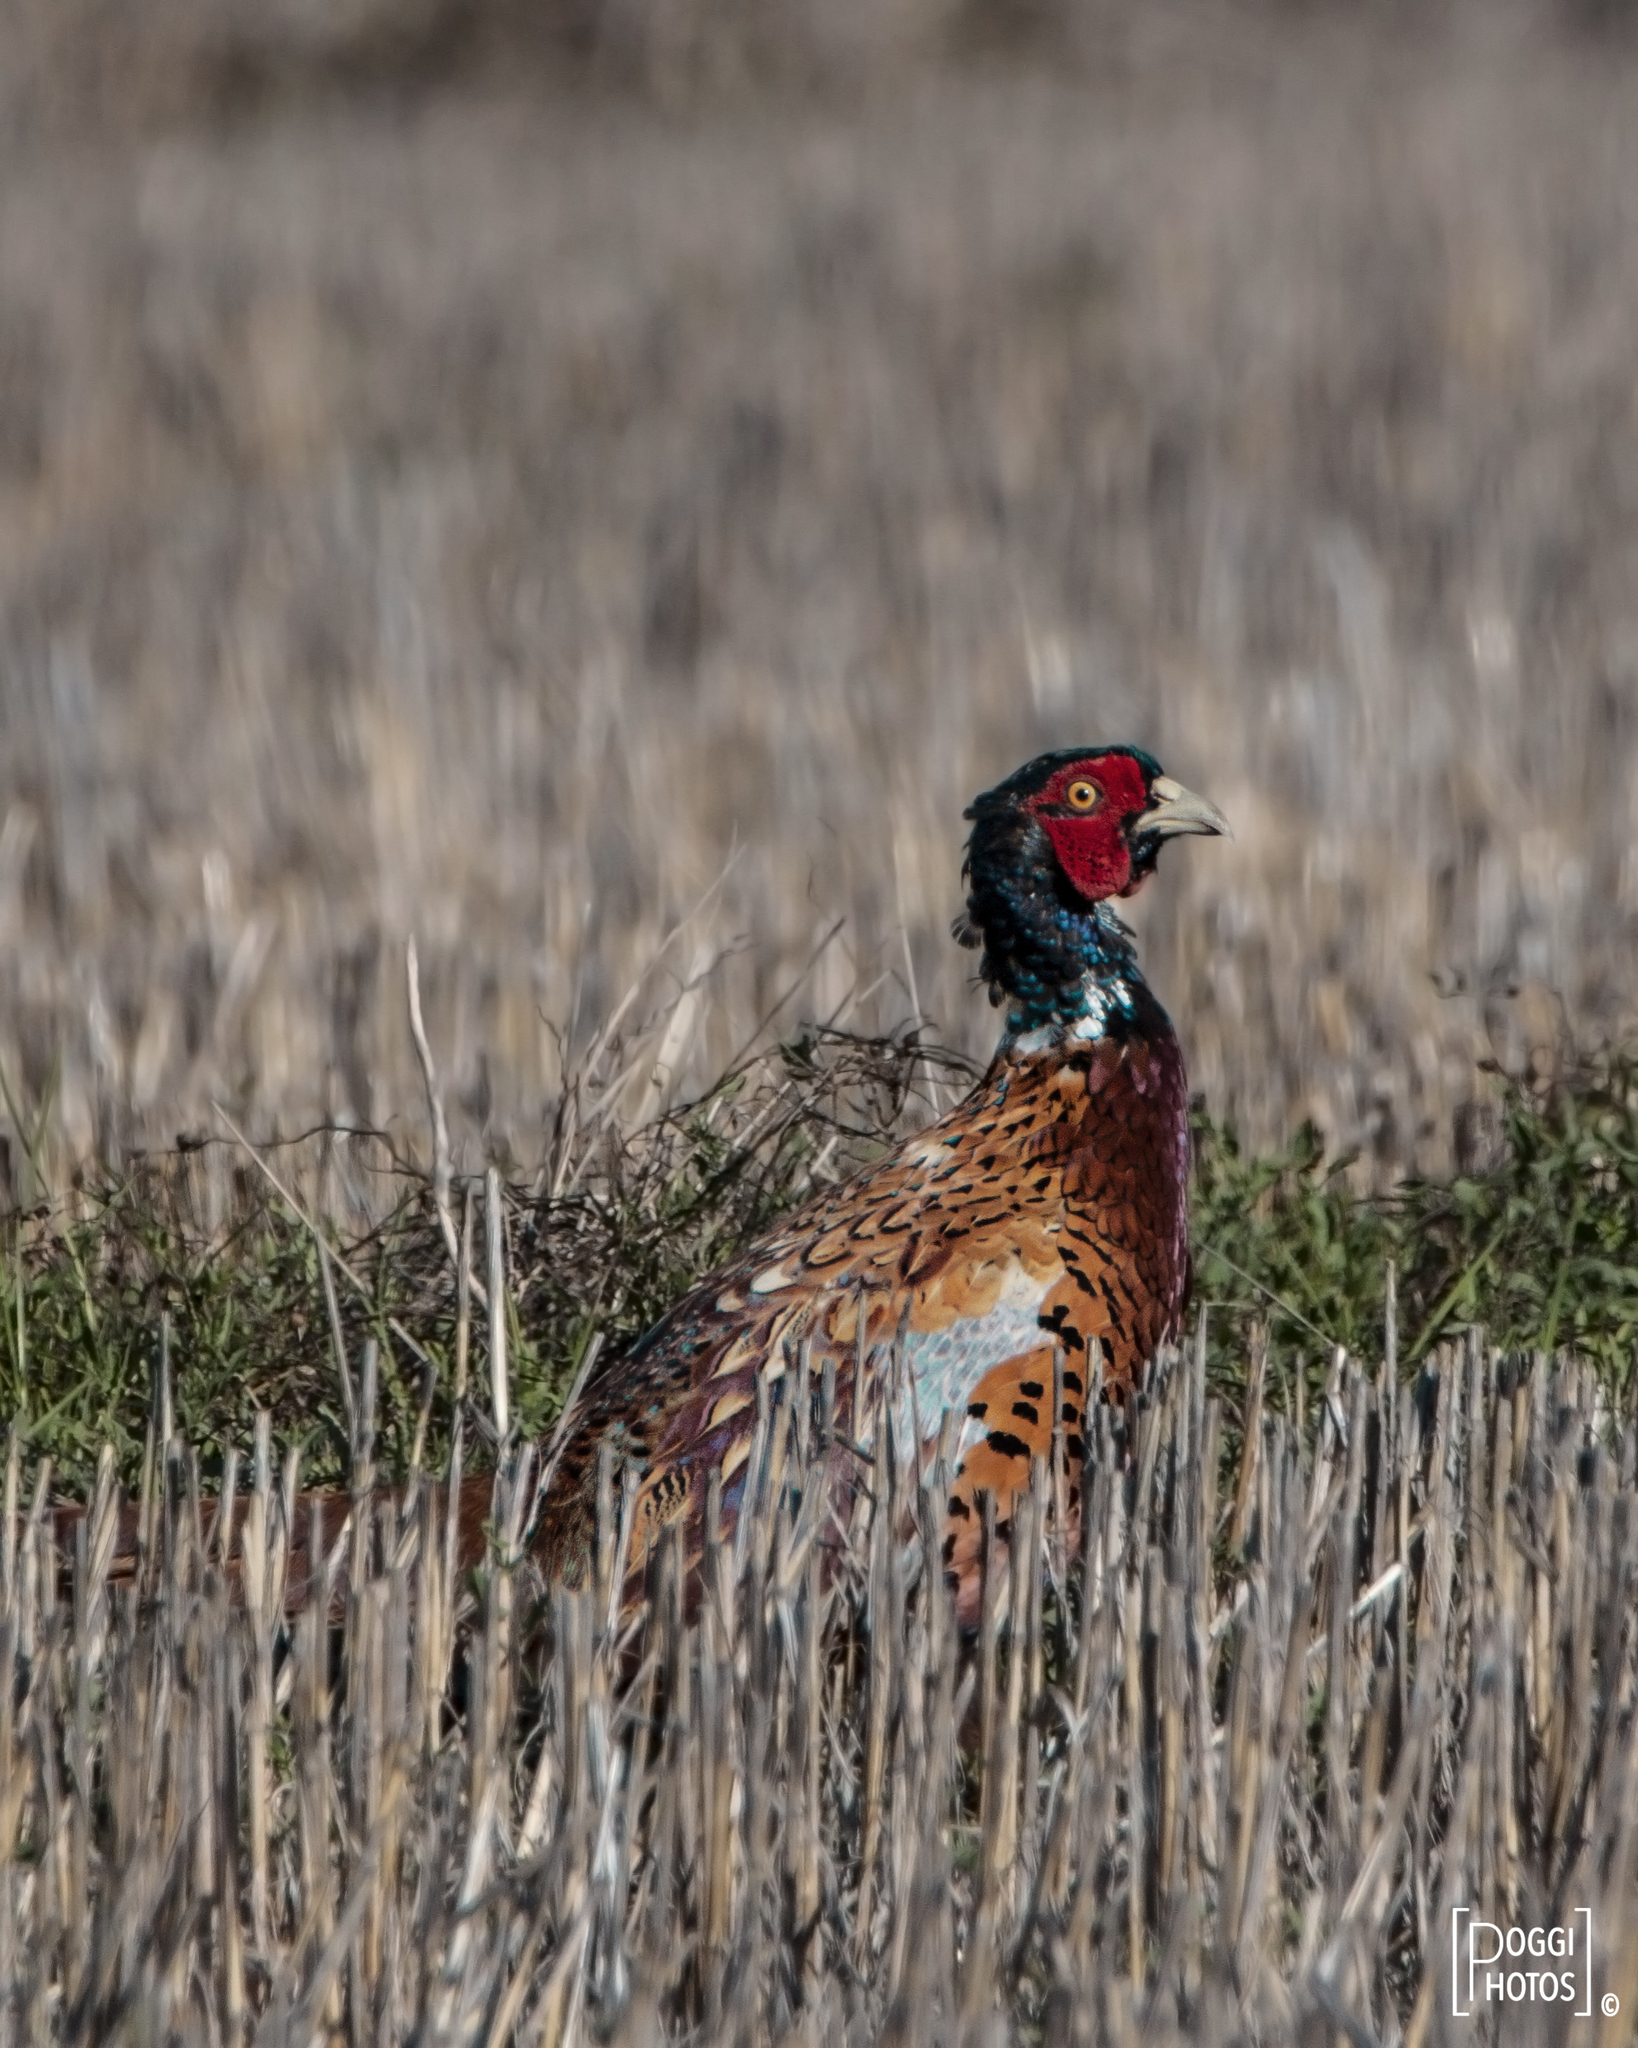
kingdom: Animalia
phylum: Chordata
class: Aves
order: Galliformes
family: Phasianidae
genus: Phasianus
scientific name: Phasianus colchicus
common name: Common pheasant
